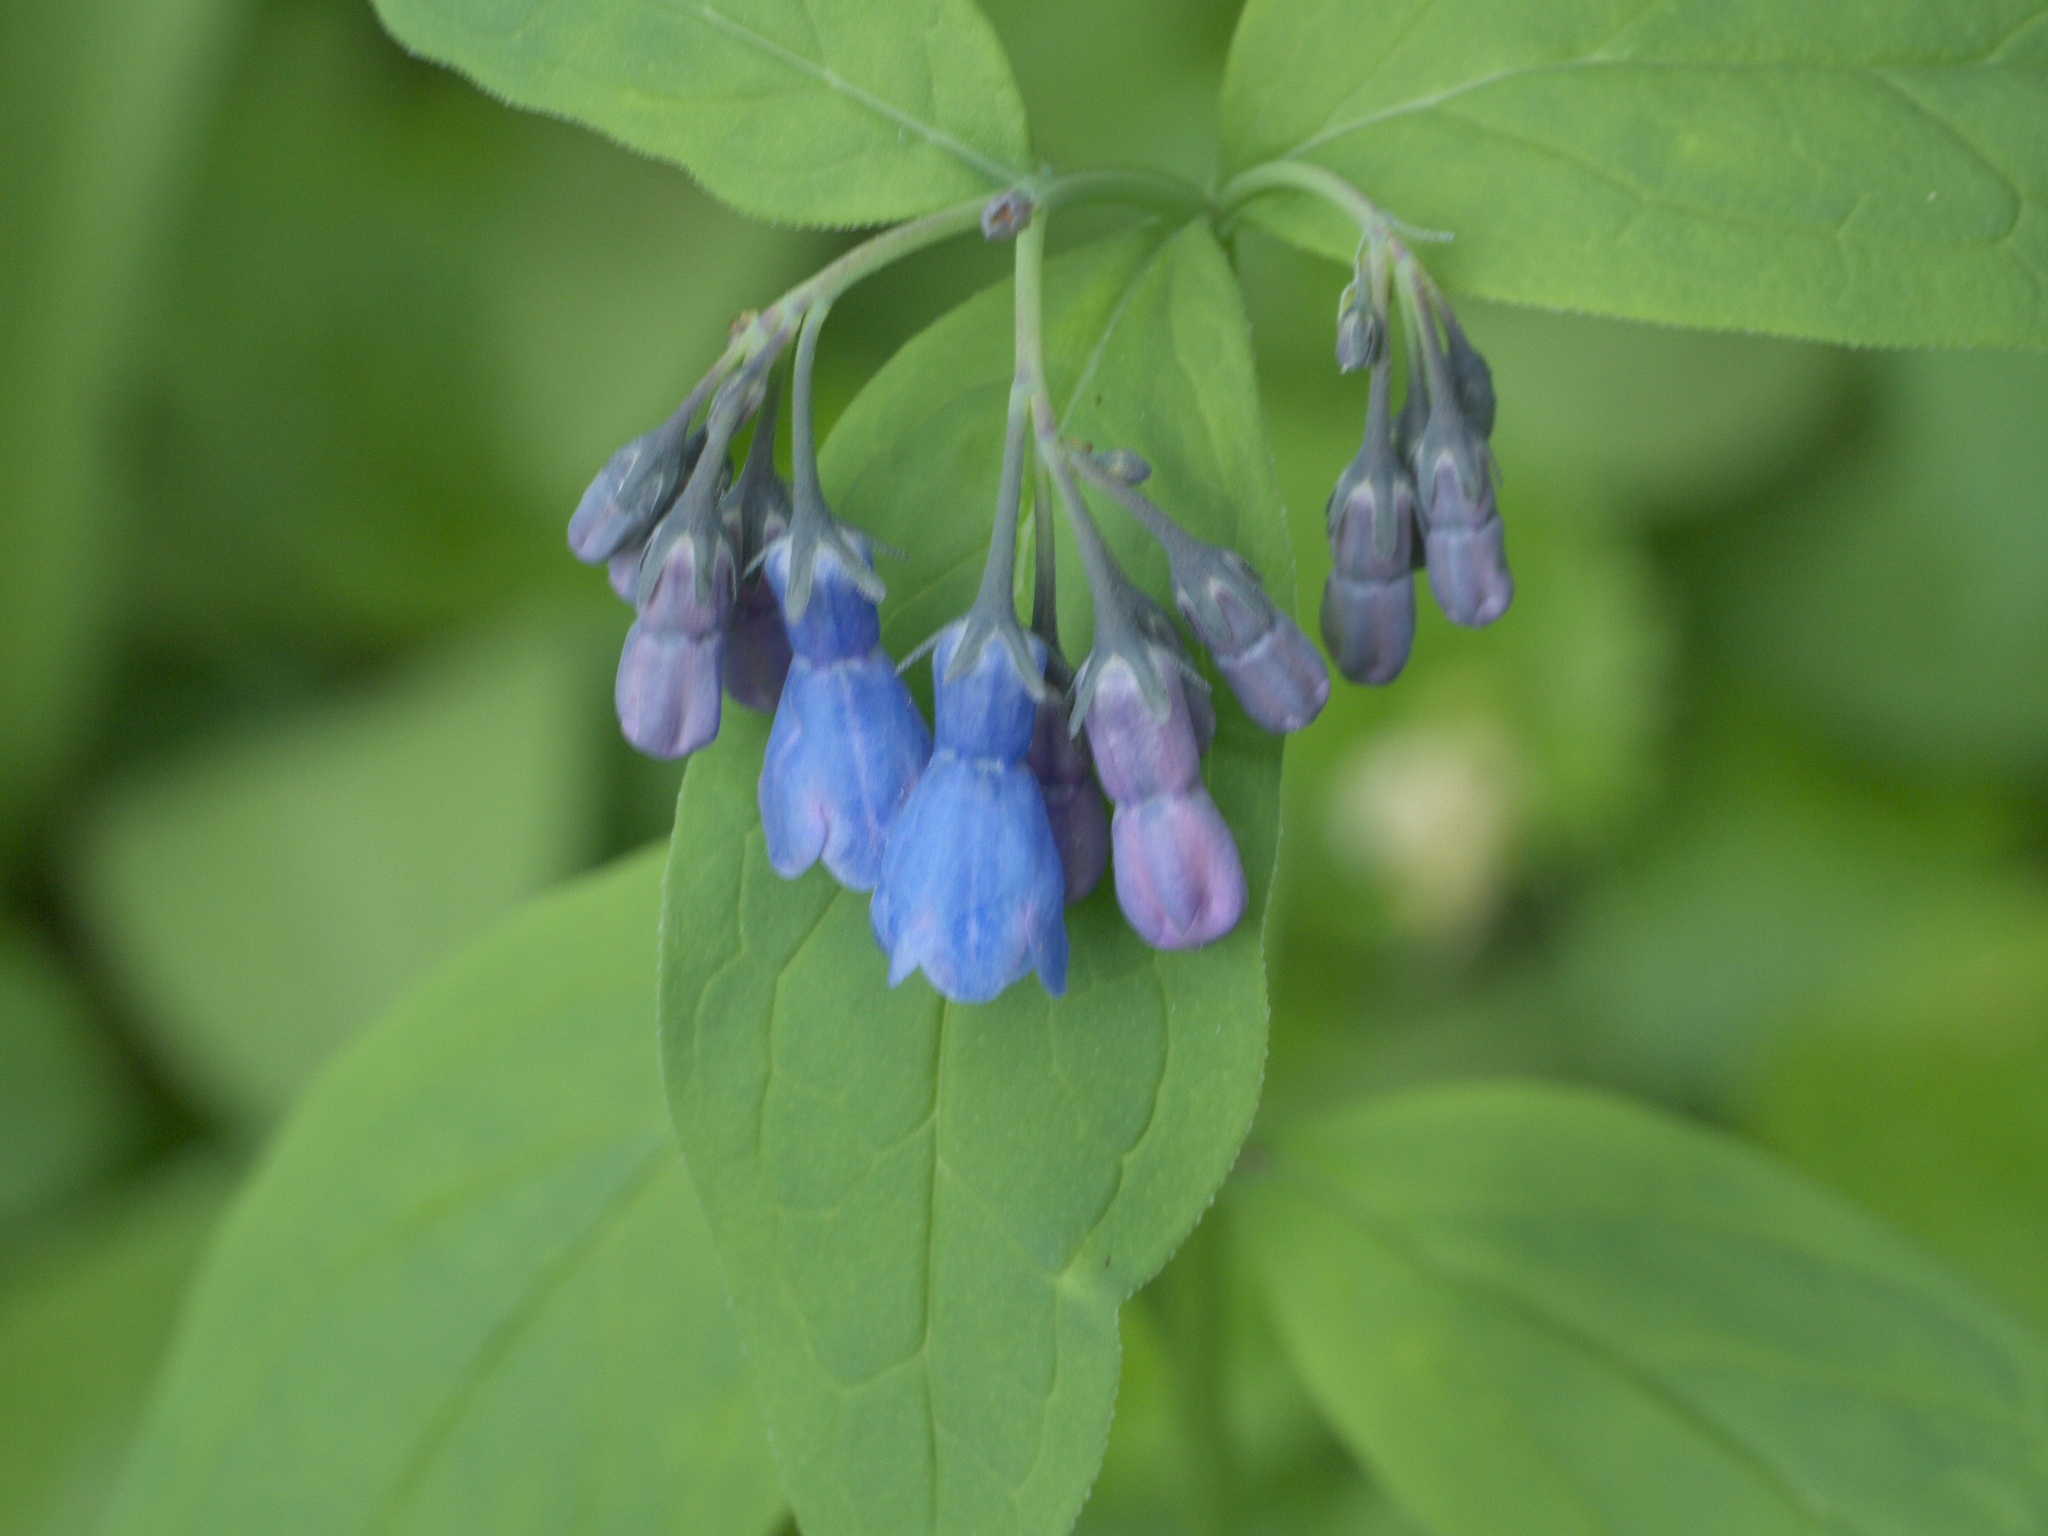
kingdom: Plantae
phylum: Tracheophyta
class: Magnoliopsida
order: Boraginales
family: Boraginaceae
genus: Mertensia
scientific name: Mertensia ciliata
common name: Tall chiming-bells
